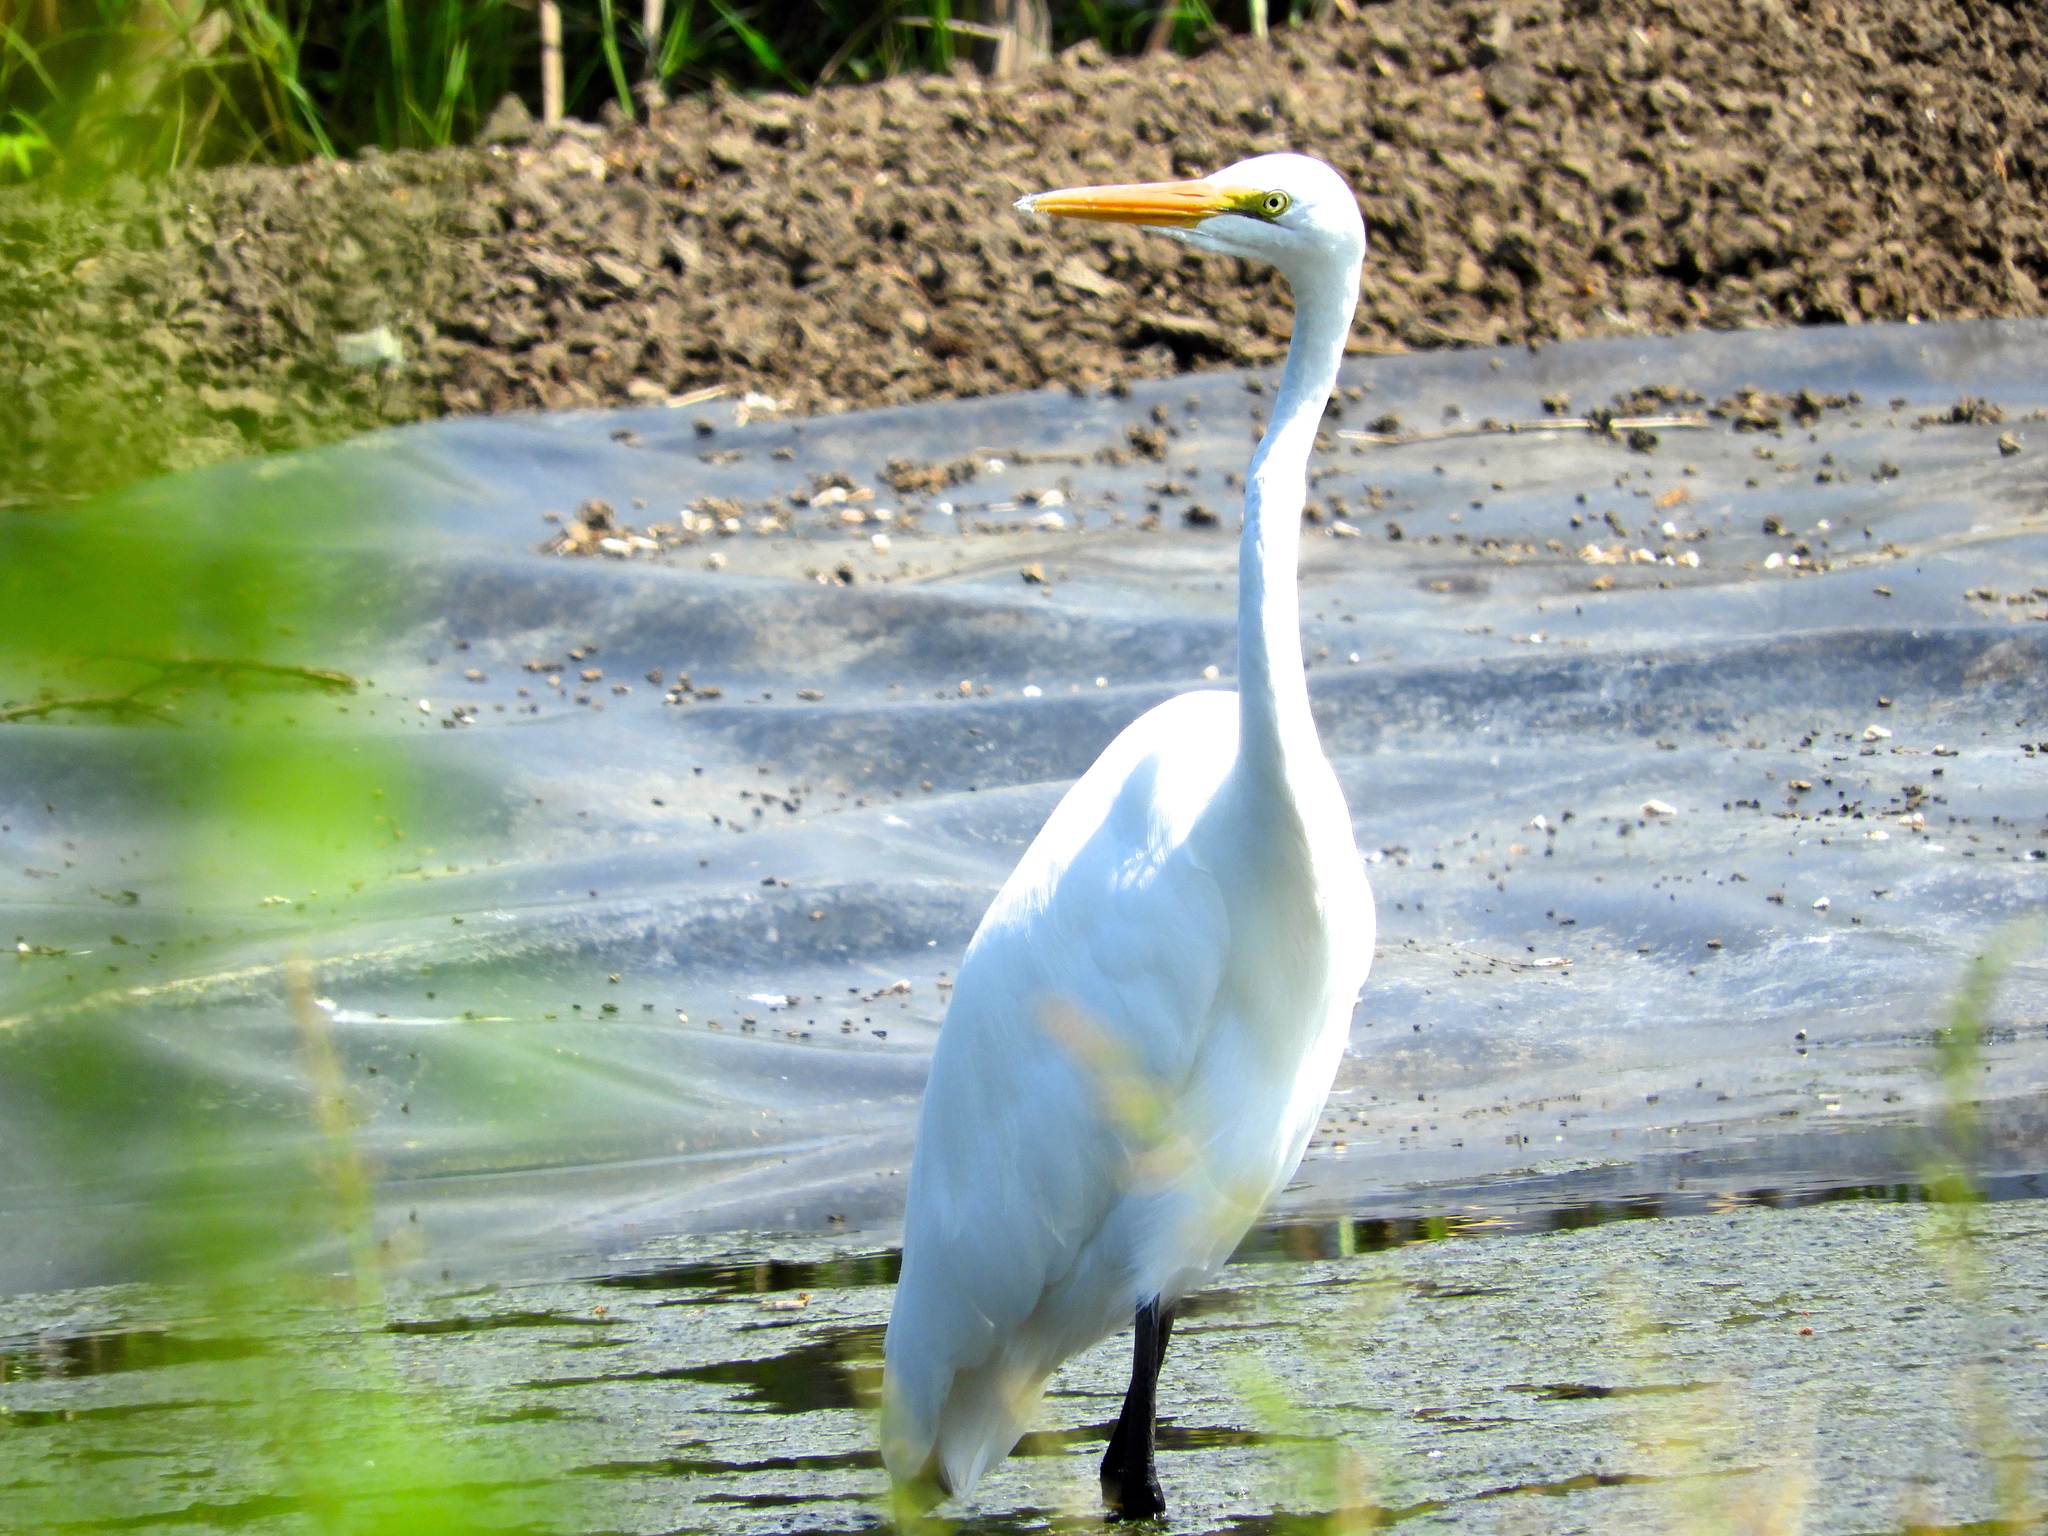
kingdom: Animalia
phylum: Chordata
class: Aves
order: Pelecaniformes
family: Ardeidae
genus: Ardea
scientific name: Ardea alba
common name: Great egret
